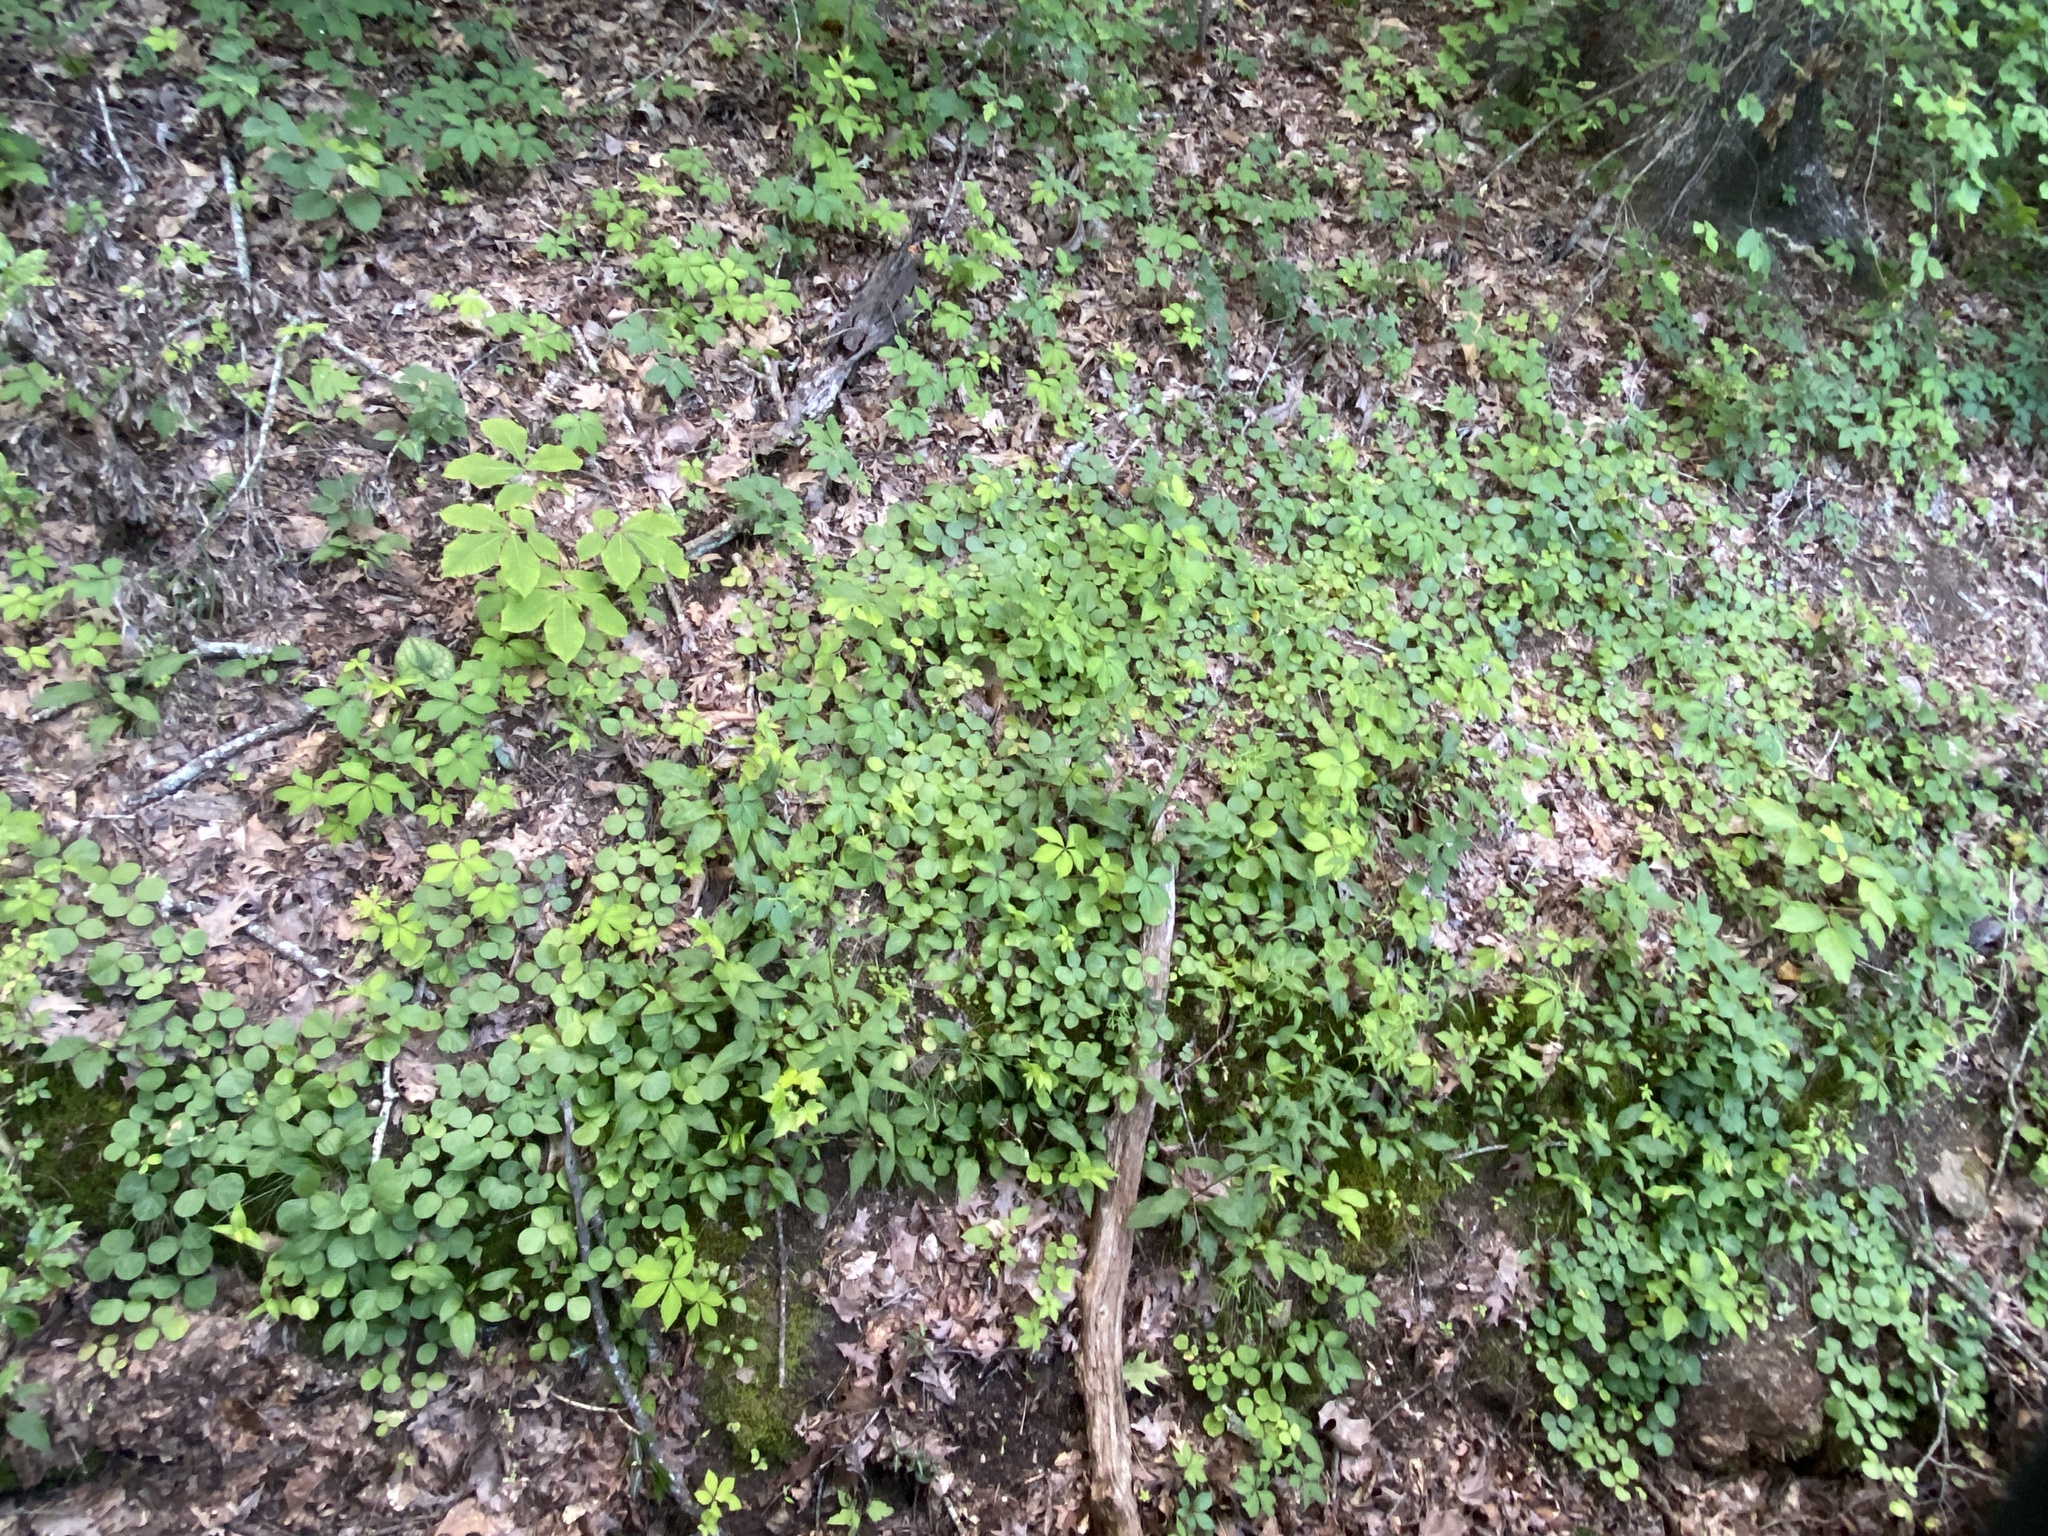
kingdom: Plantae
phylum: Tracheophyta
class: Magnoliopsida
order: Fabales
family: Fabaceae
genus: Desmodium
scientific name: Desmodium rotundifolium
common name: Dollarleaf
